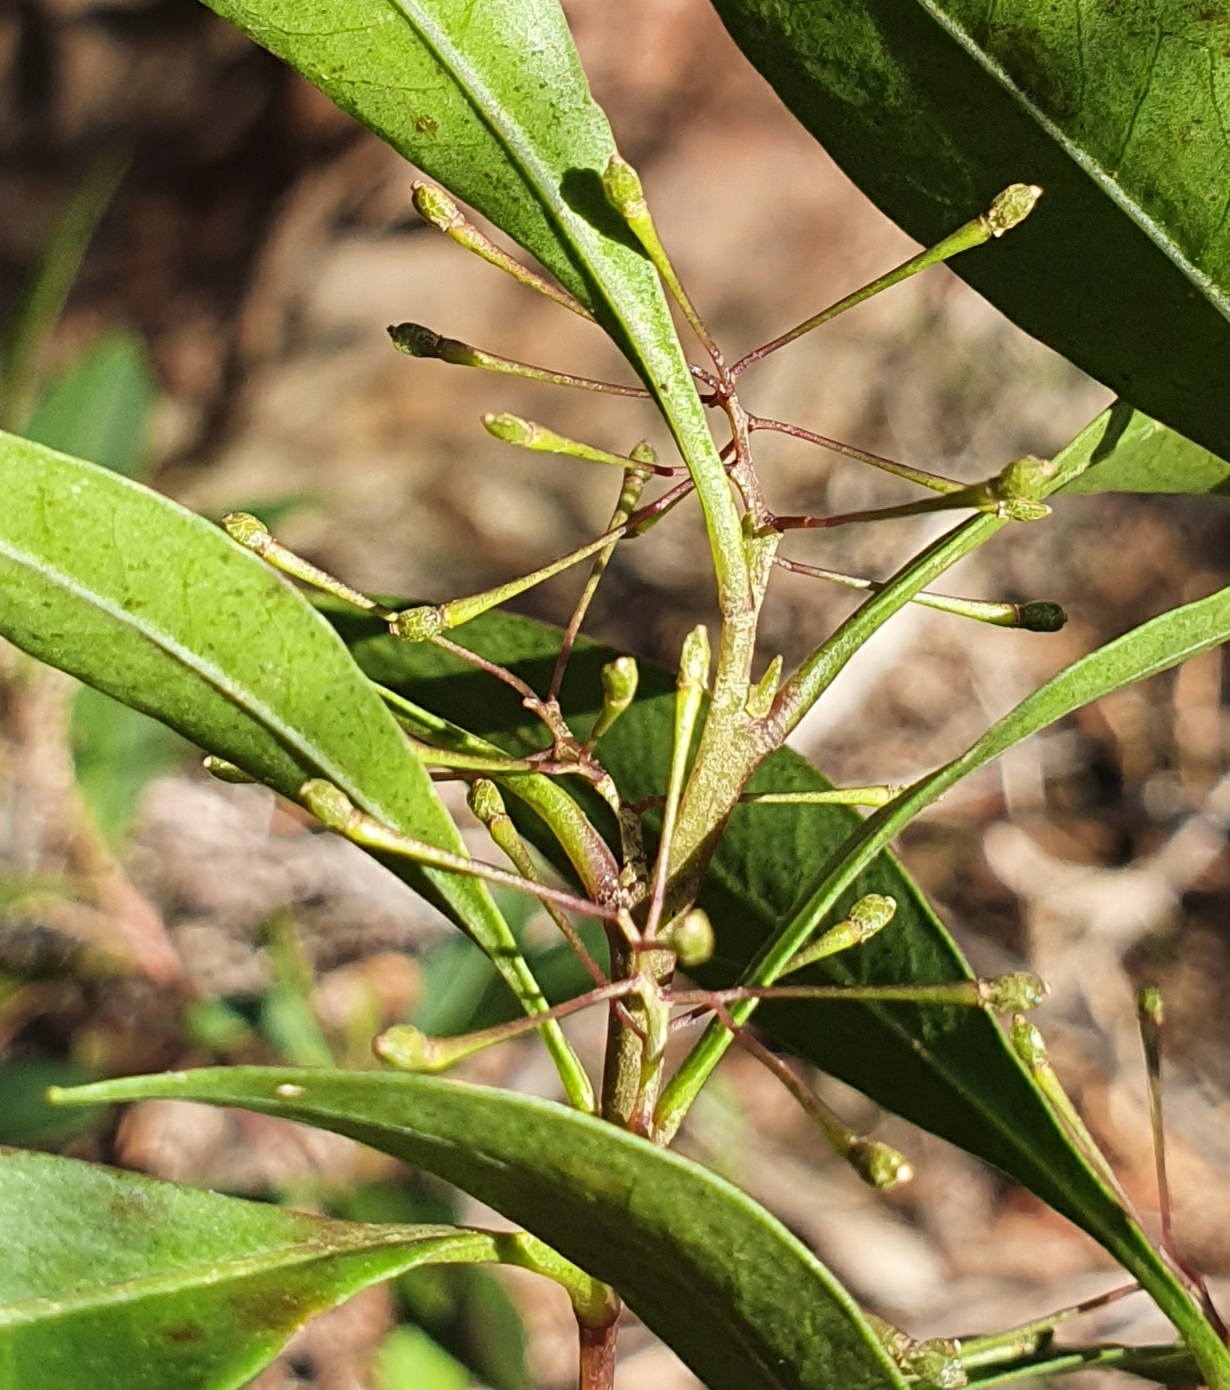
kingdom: Plantae
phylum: Tracheophyta
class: Magnoliopsida
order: Sapindales
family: Sapindaceae
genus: Dodonaea
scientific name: Dodonaea triquetra
